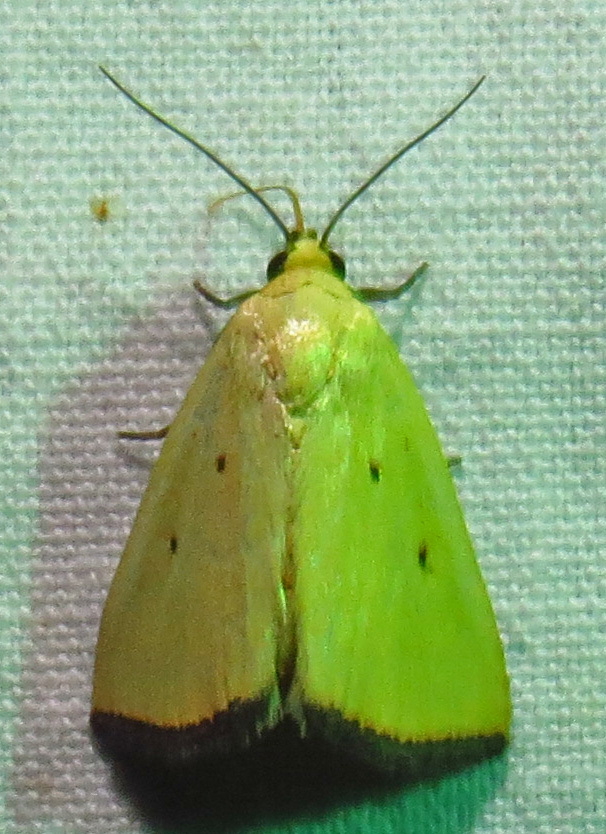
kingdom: Animalia
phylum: Arthropoda
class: Insecta
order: Lepidoptera
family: Noctuidae
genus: Marimatha
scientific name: Marimatha nigrofimbria
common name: Black-bordered lemon moth
